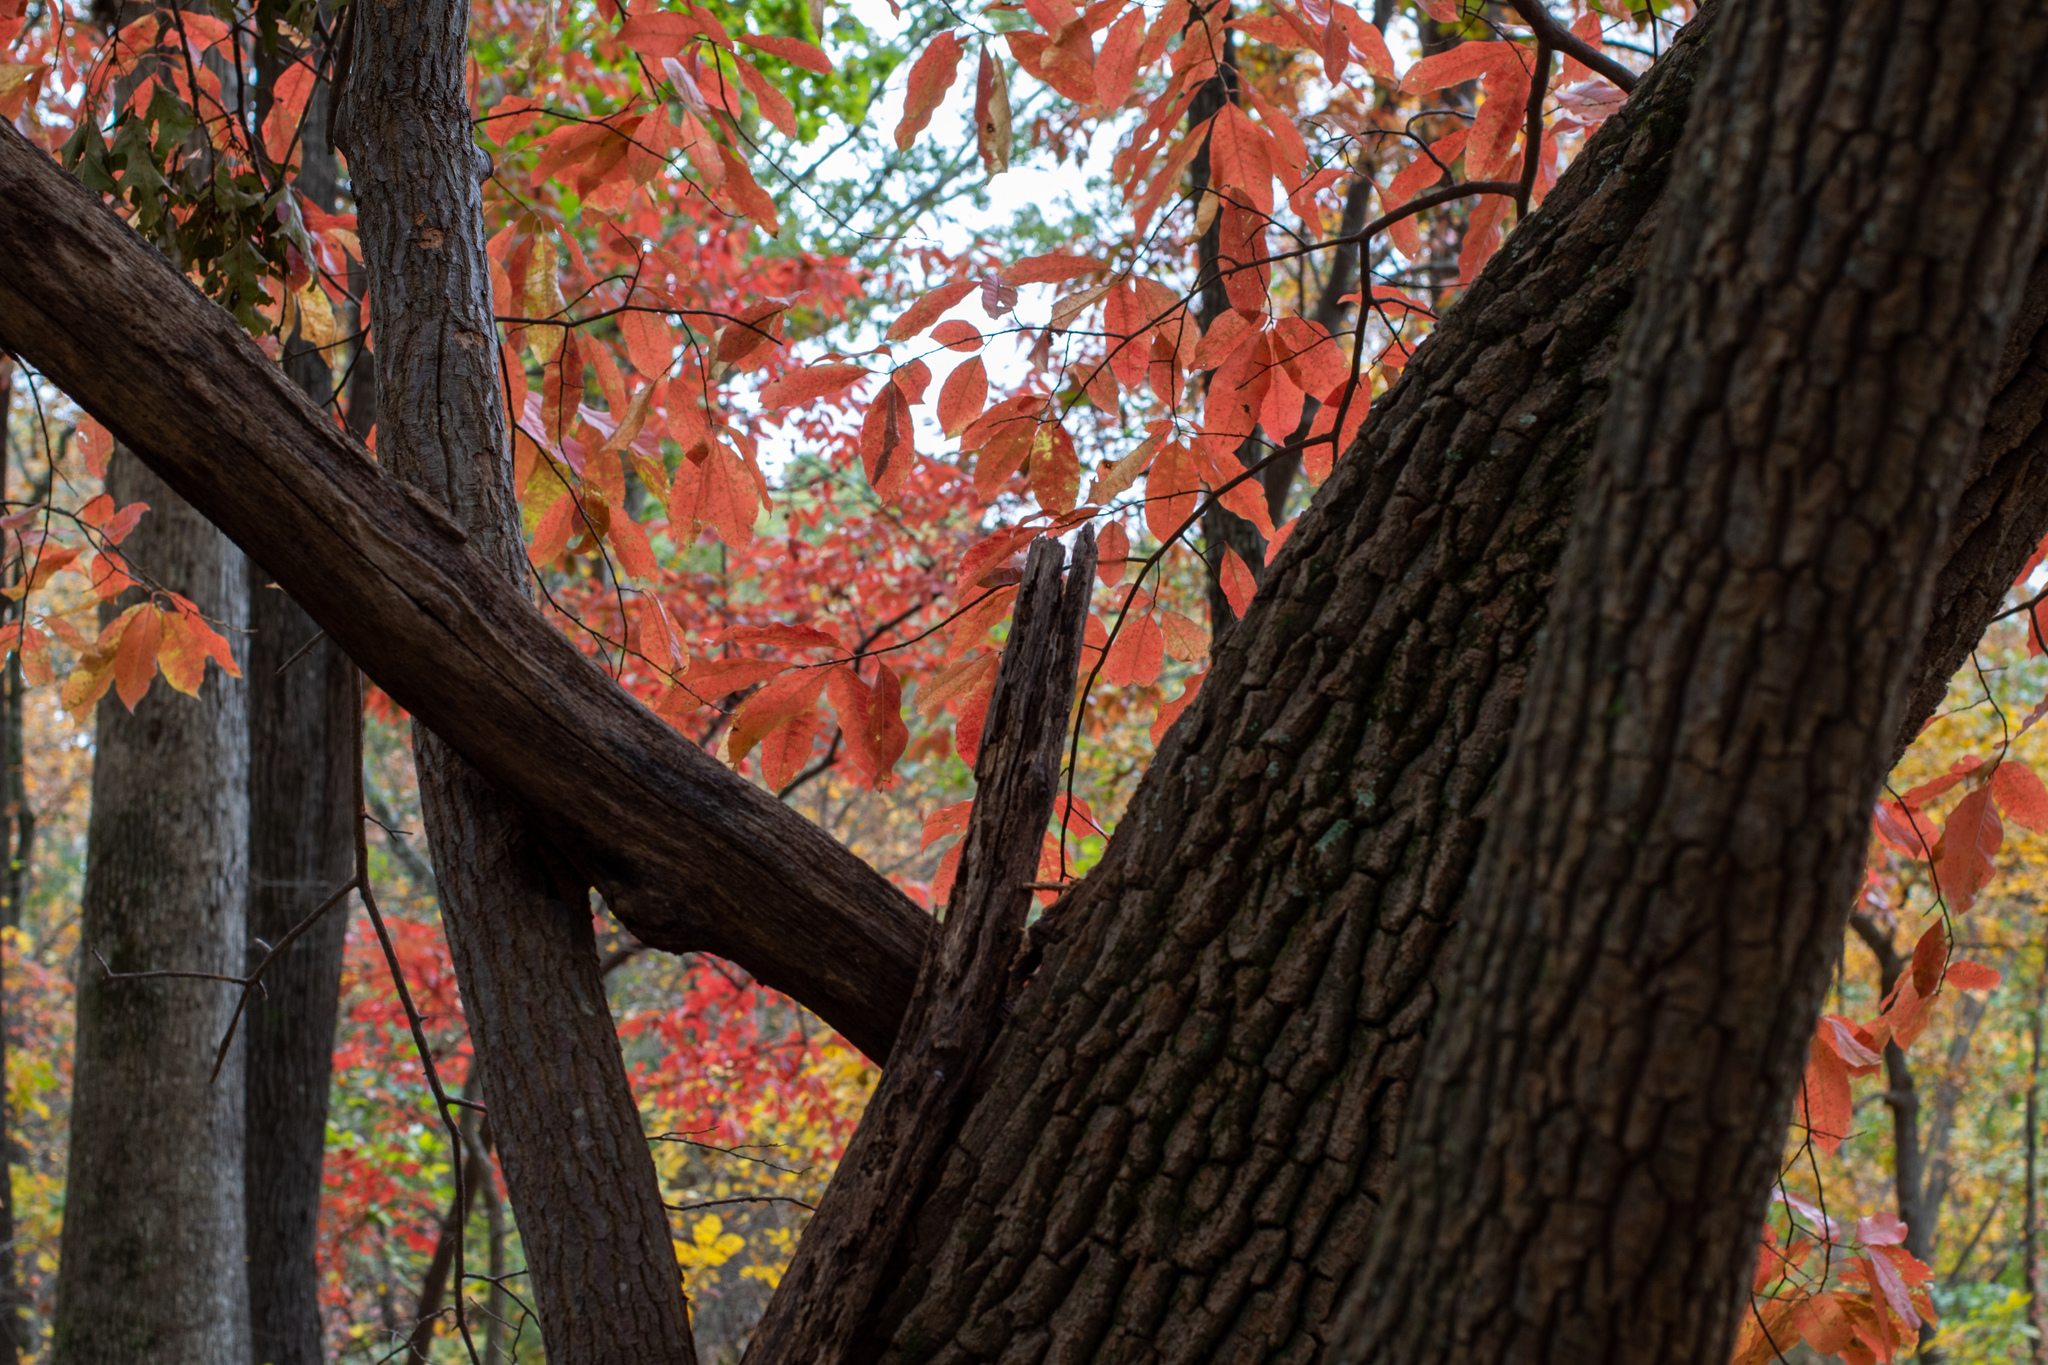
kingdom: Plantae
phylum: Tracheophyta
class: Magnoliopsida
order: Ericales
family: Ericaceae
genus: Oxydendrum
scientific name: Oxydendrum arboreum
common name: Sourwood
